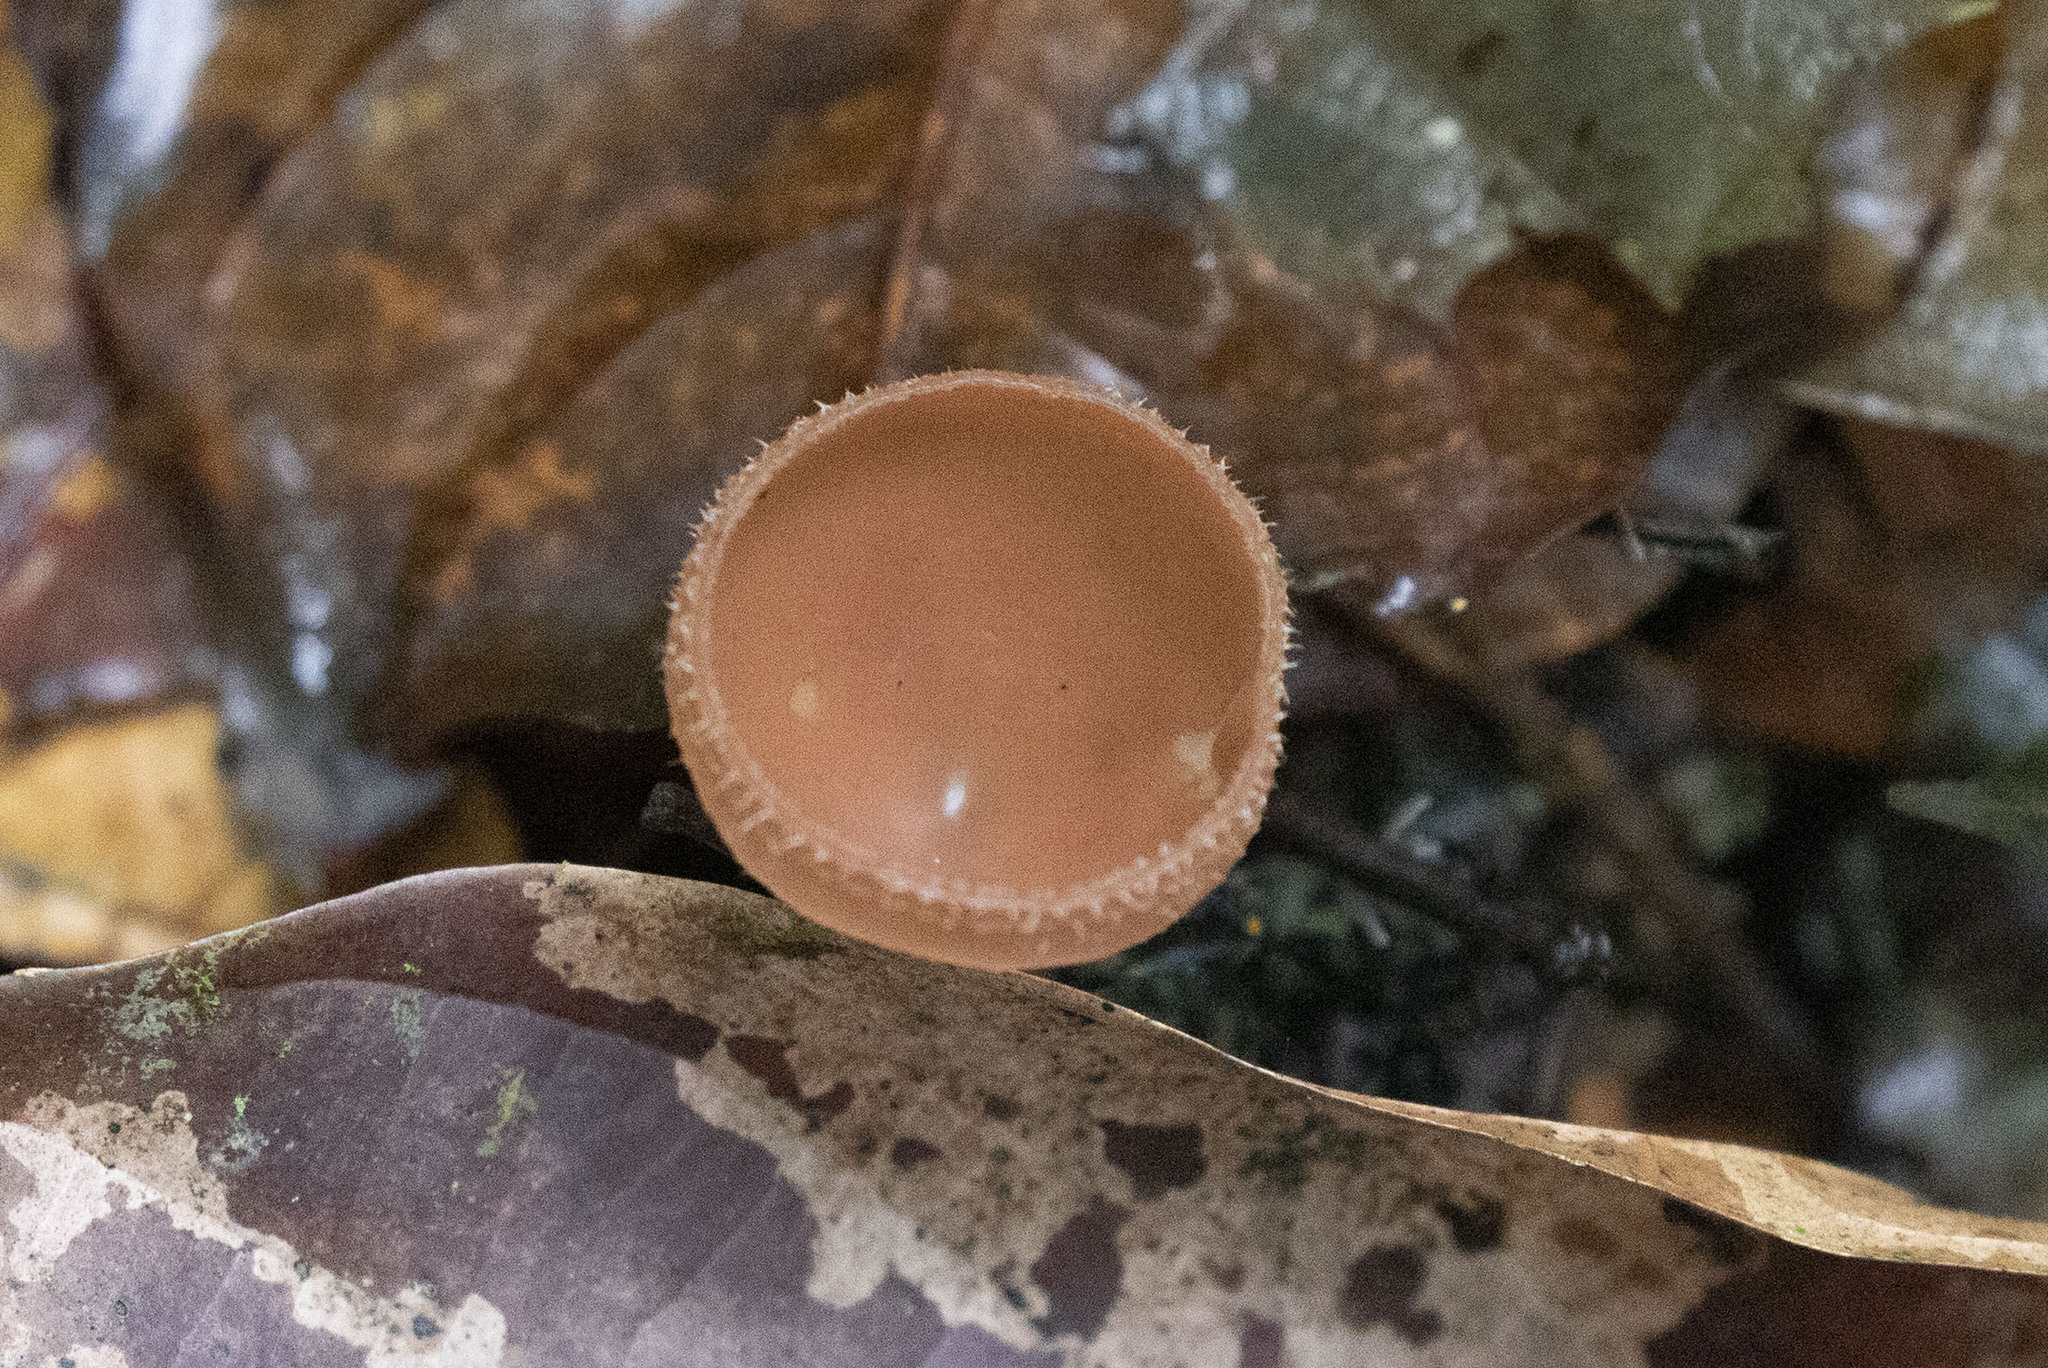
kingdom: Fungi
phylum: Ascomycota
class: Pezizomycetes
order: Pezizales
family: Sarcoscyphaceae
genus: Cookeina
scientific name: Cookeina speciosa
